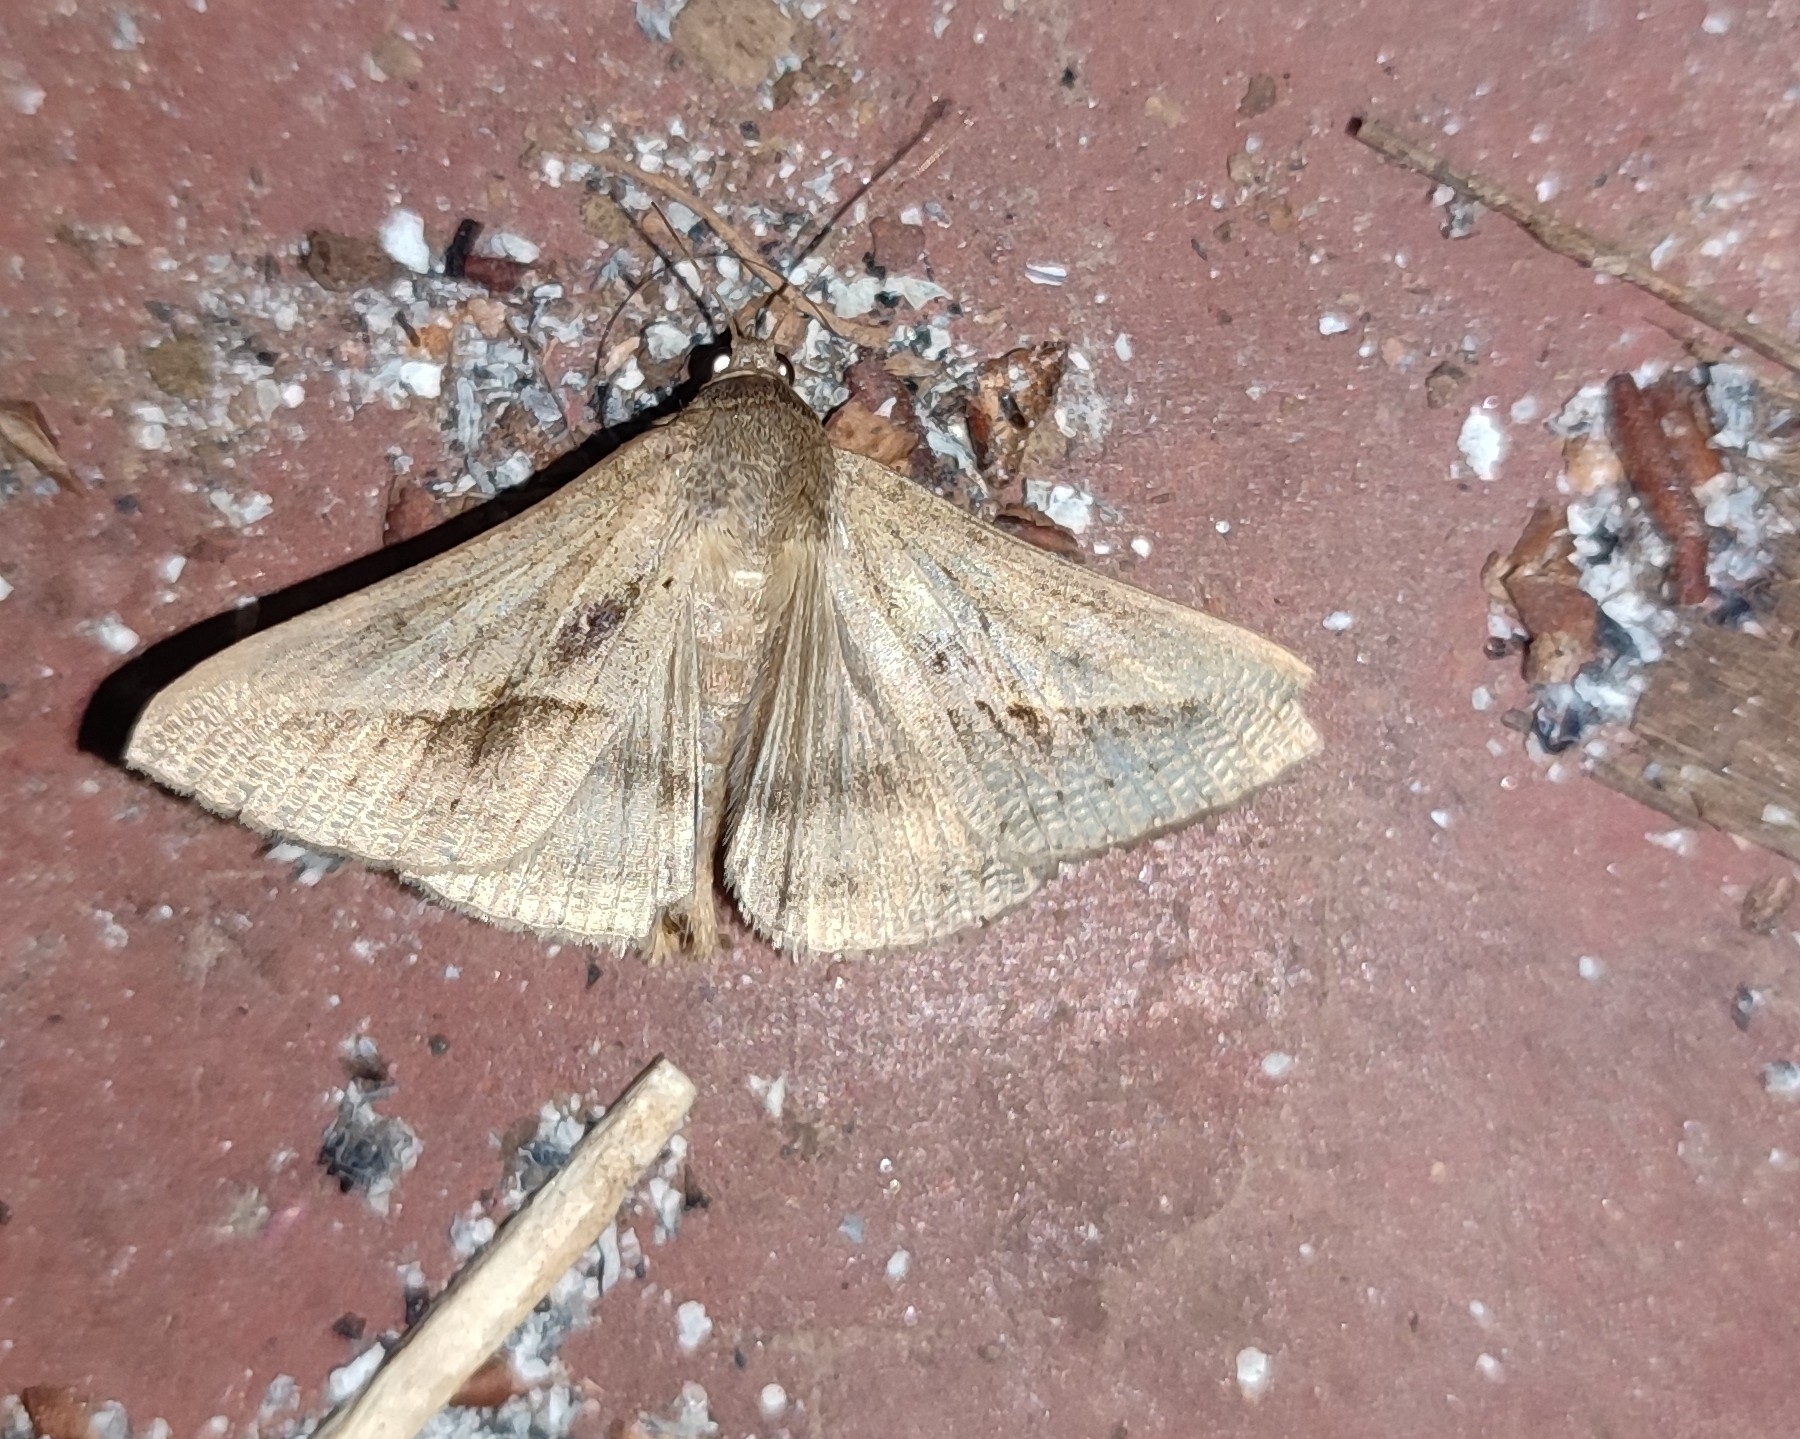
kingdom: Animalia
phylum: Arthropoda
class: Insecta
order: Lepidoptera
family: Erebidae
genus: Mocis
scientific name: Mocis frugalis
